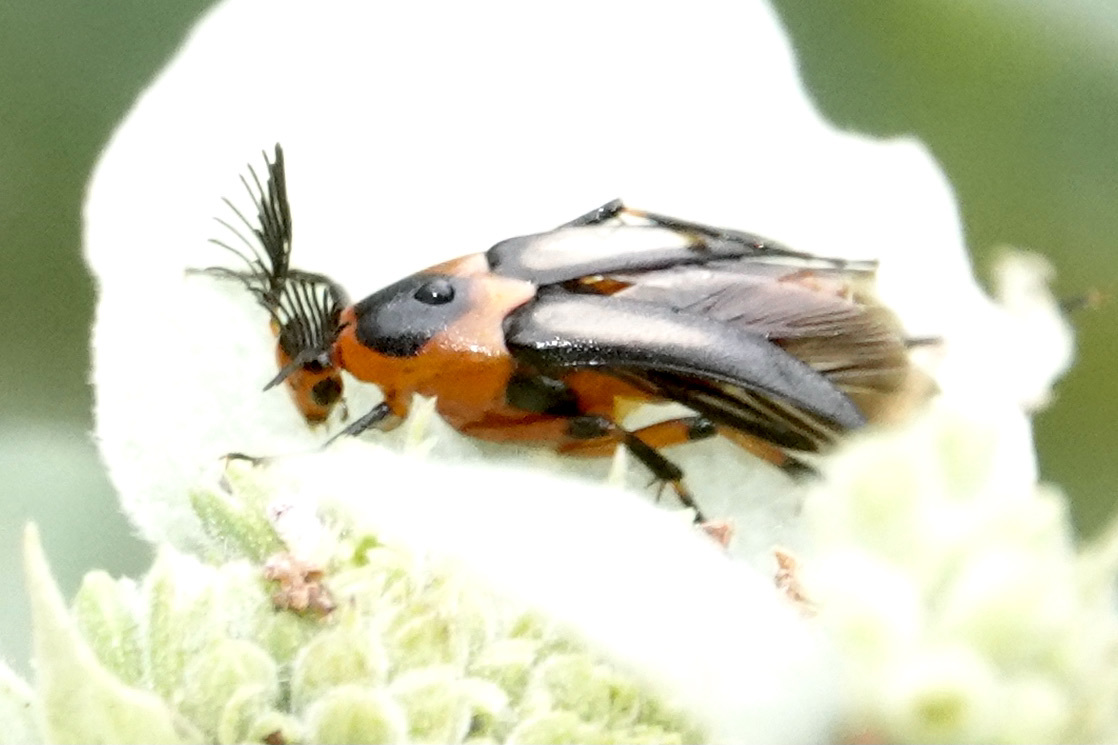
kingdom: Animalia
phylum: Arthropoda
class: Insecta
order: Coleoptera
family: Ripiphoridae
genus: Macrosiagon
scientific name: Macrosiagon limbatum
